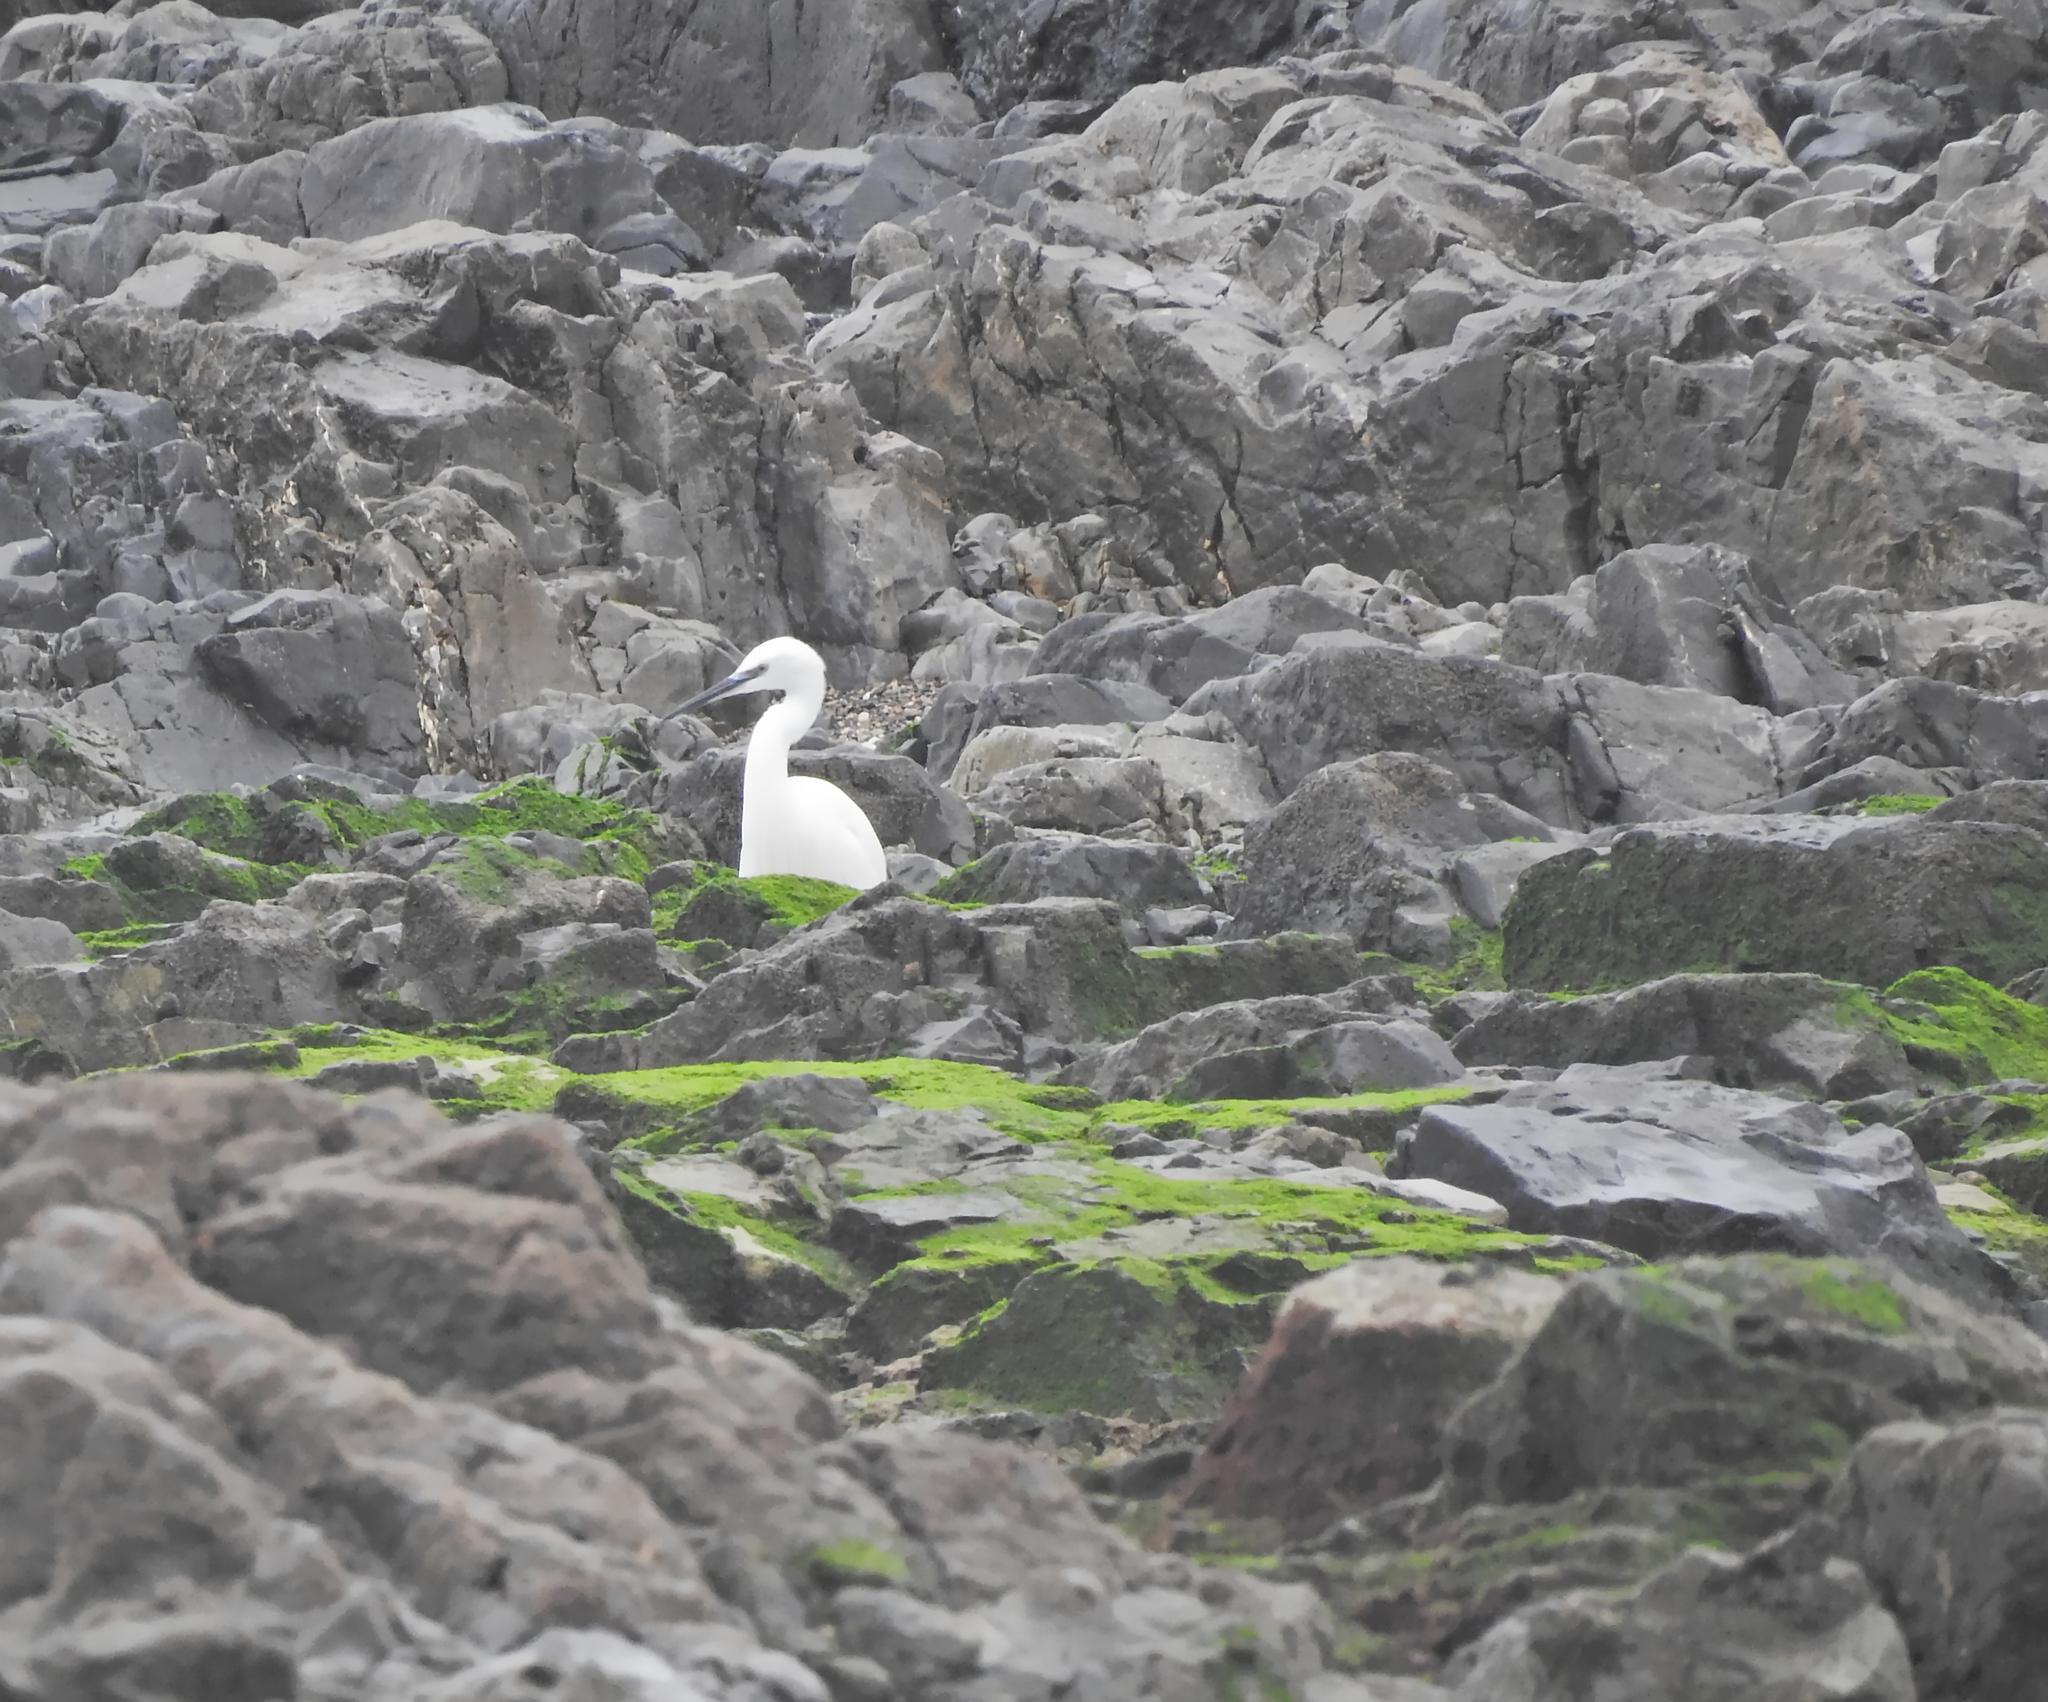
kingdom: Animalia
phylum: Chordata
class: Aves
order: Pelecaniformes
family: Ardeidae
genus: Egretta
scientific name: Egretta garzetta
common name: Little egret
